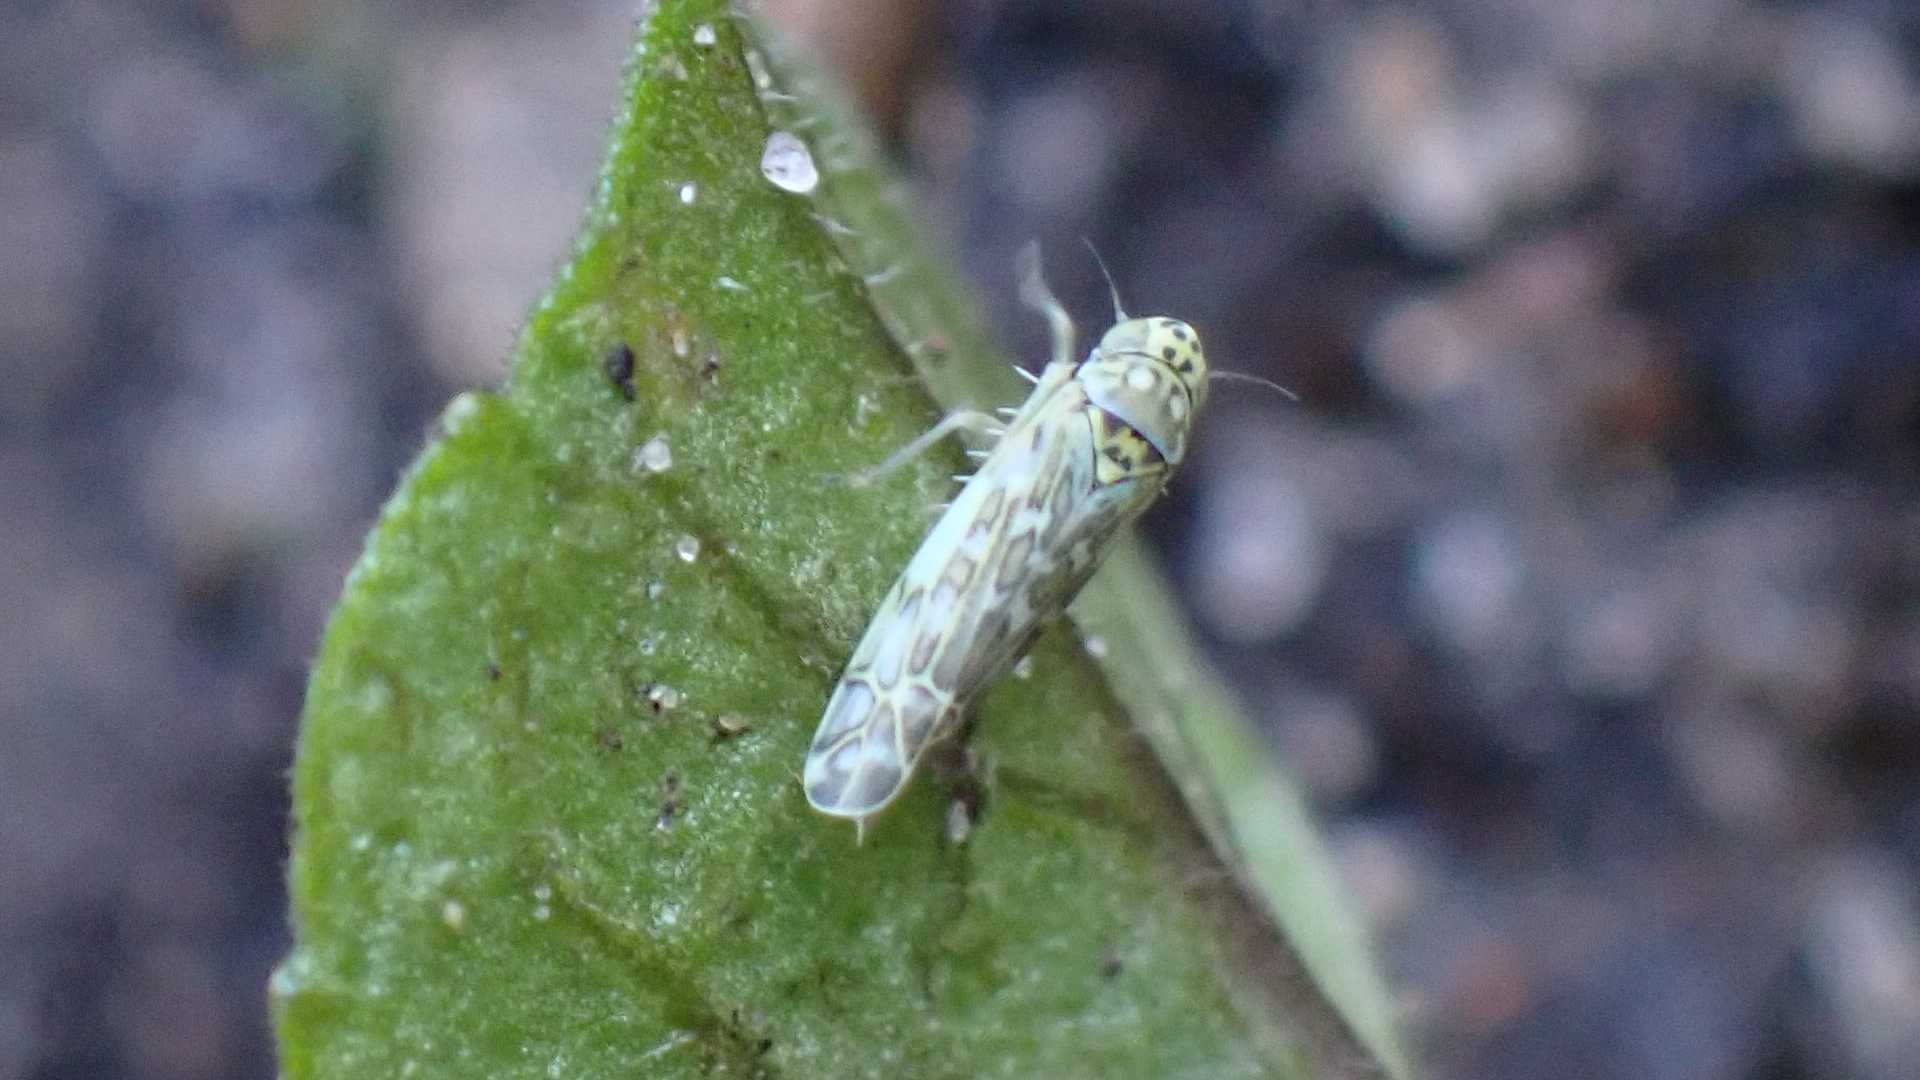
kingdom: Animalia
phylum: Arthropoda
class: Insecta
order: Hemiptera
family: Cicadellidae
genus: Eupteryx
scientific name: Eupteryx decemnotata
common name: Ligurian leafhopper
